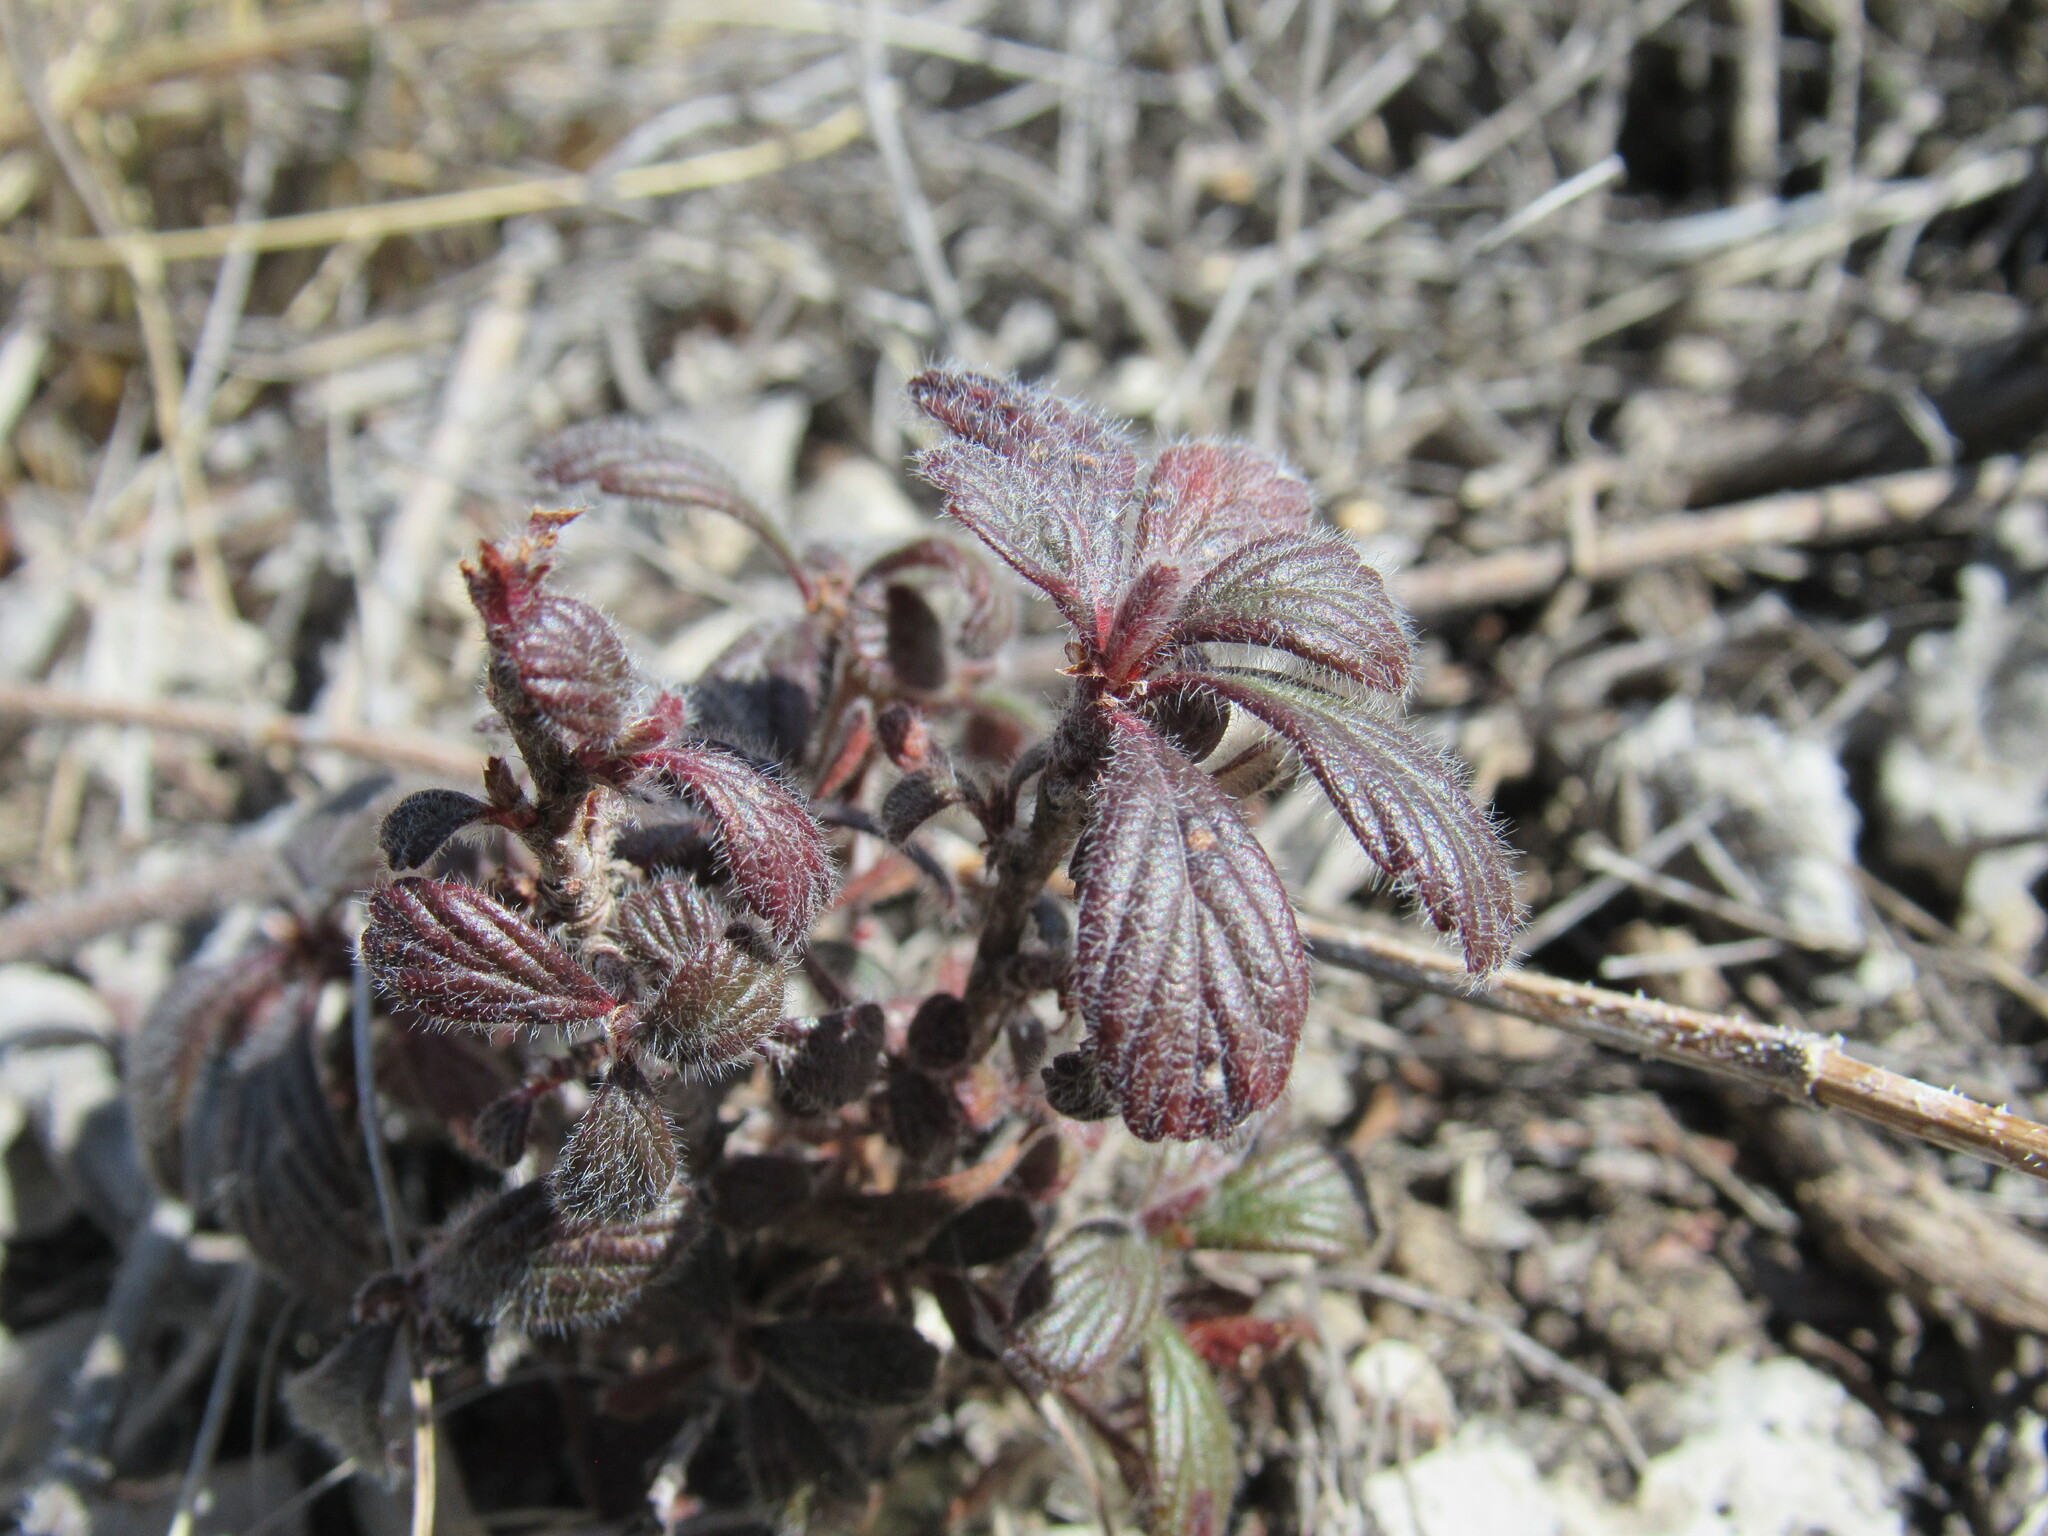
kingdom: Plantae
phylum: Tracheophyta
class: Magnoliopsida
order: Rosales
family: Rosaceae
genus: Cercocarpus
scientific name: Cercocarpus montanus
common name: Alder-leaf cercocarpus
